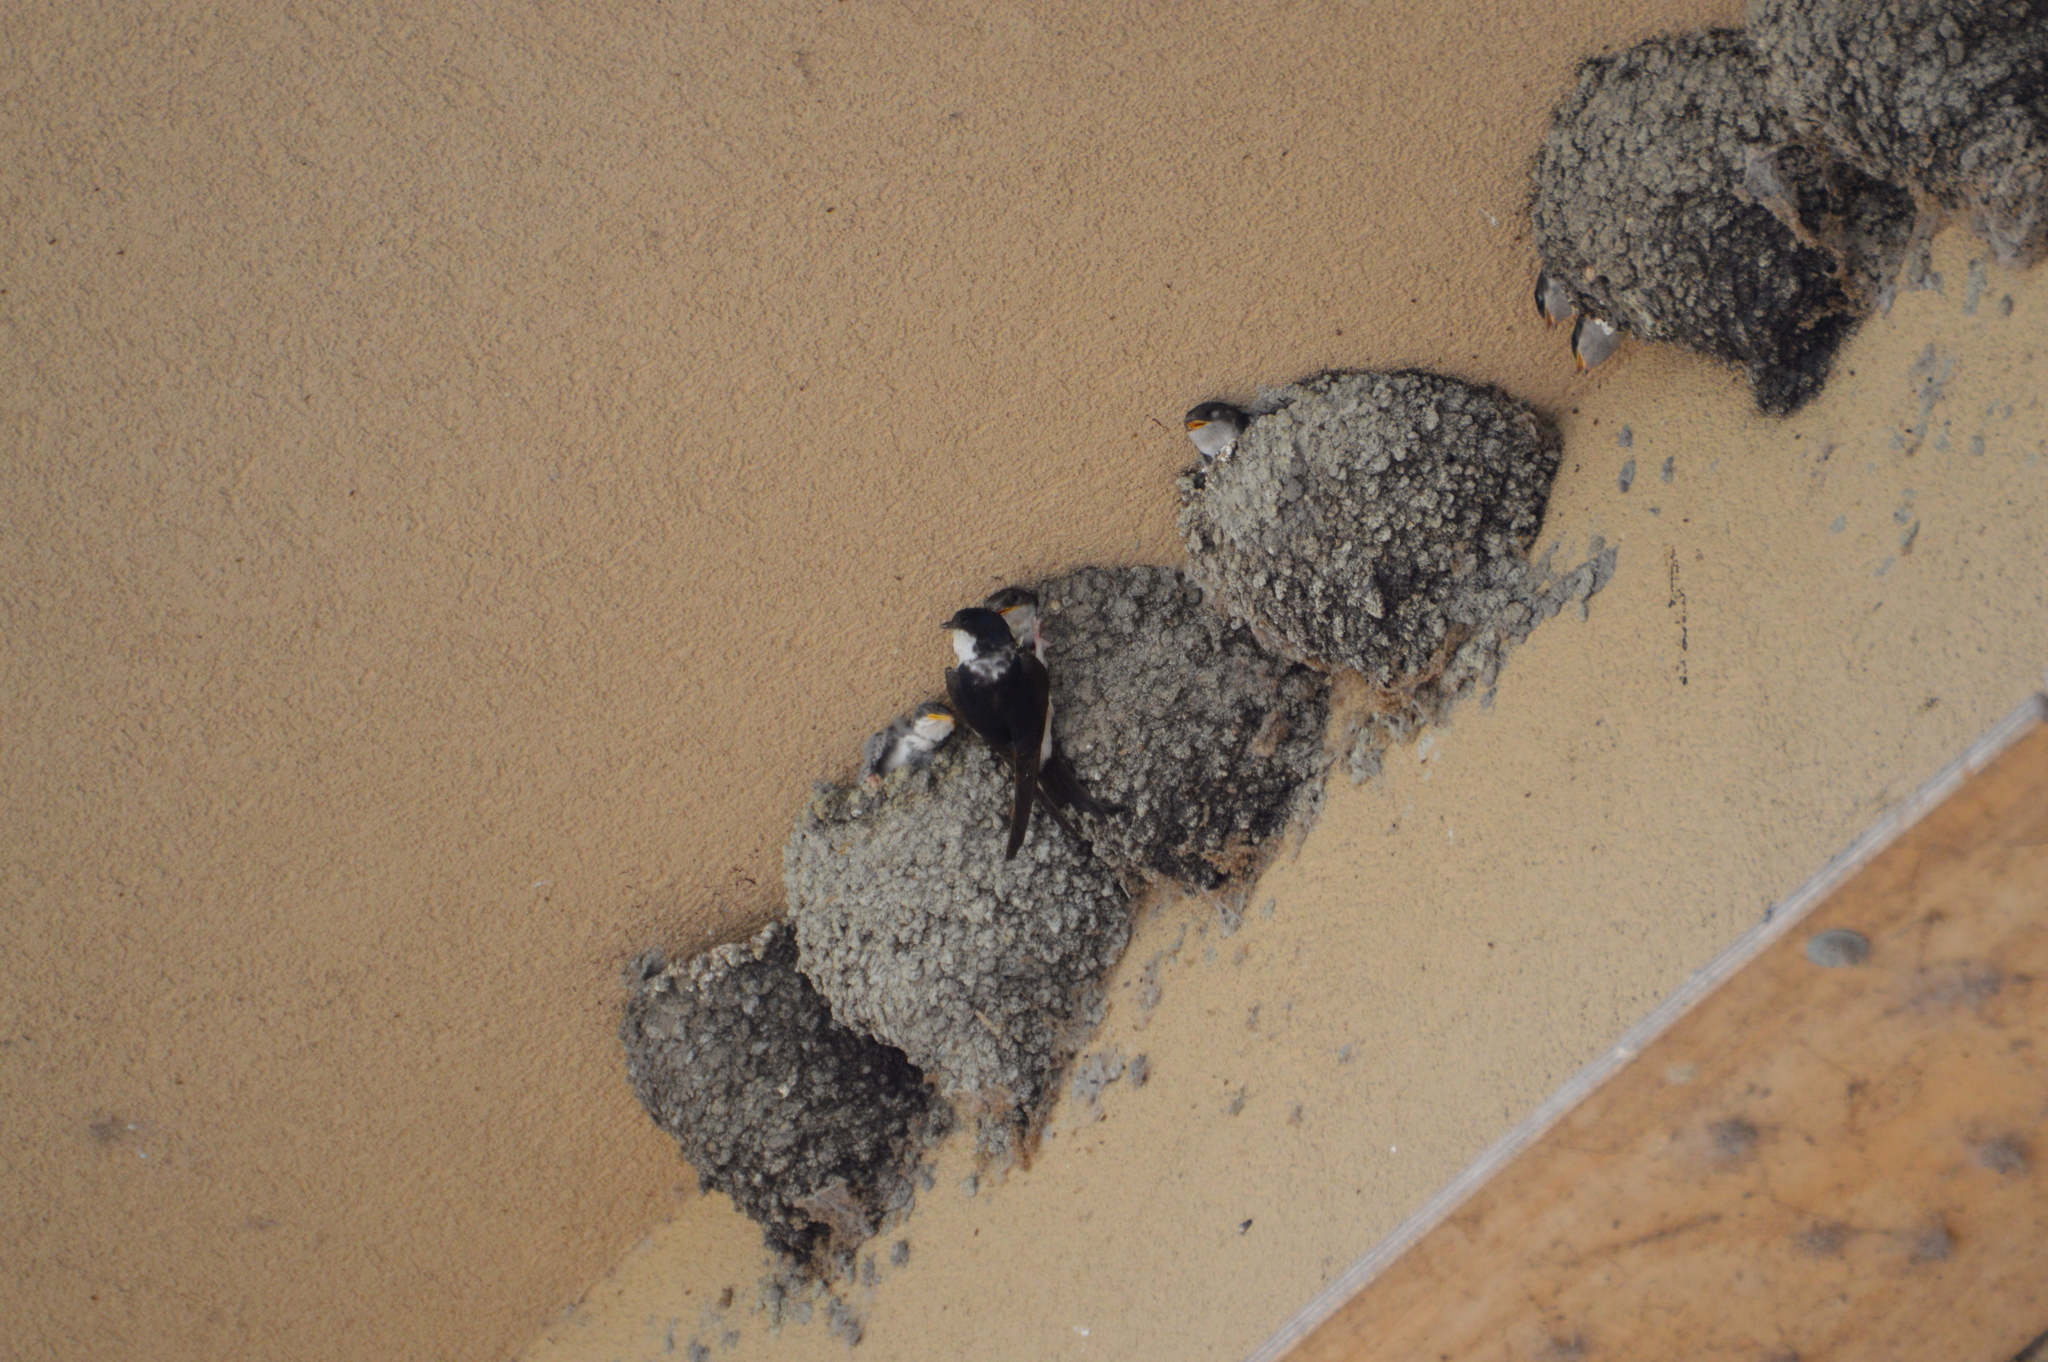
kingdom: Animalia
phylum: Chordata
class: Aves
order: Passeriformes
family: Hirundinidae
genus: Delichon
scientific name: Delichon urbicum
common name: Common house martin
